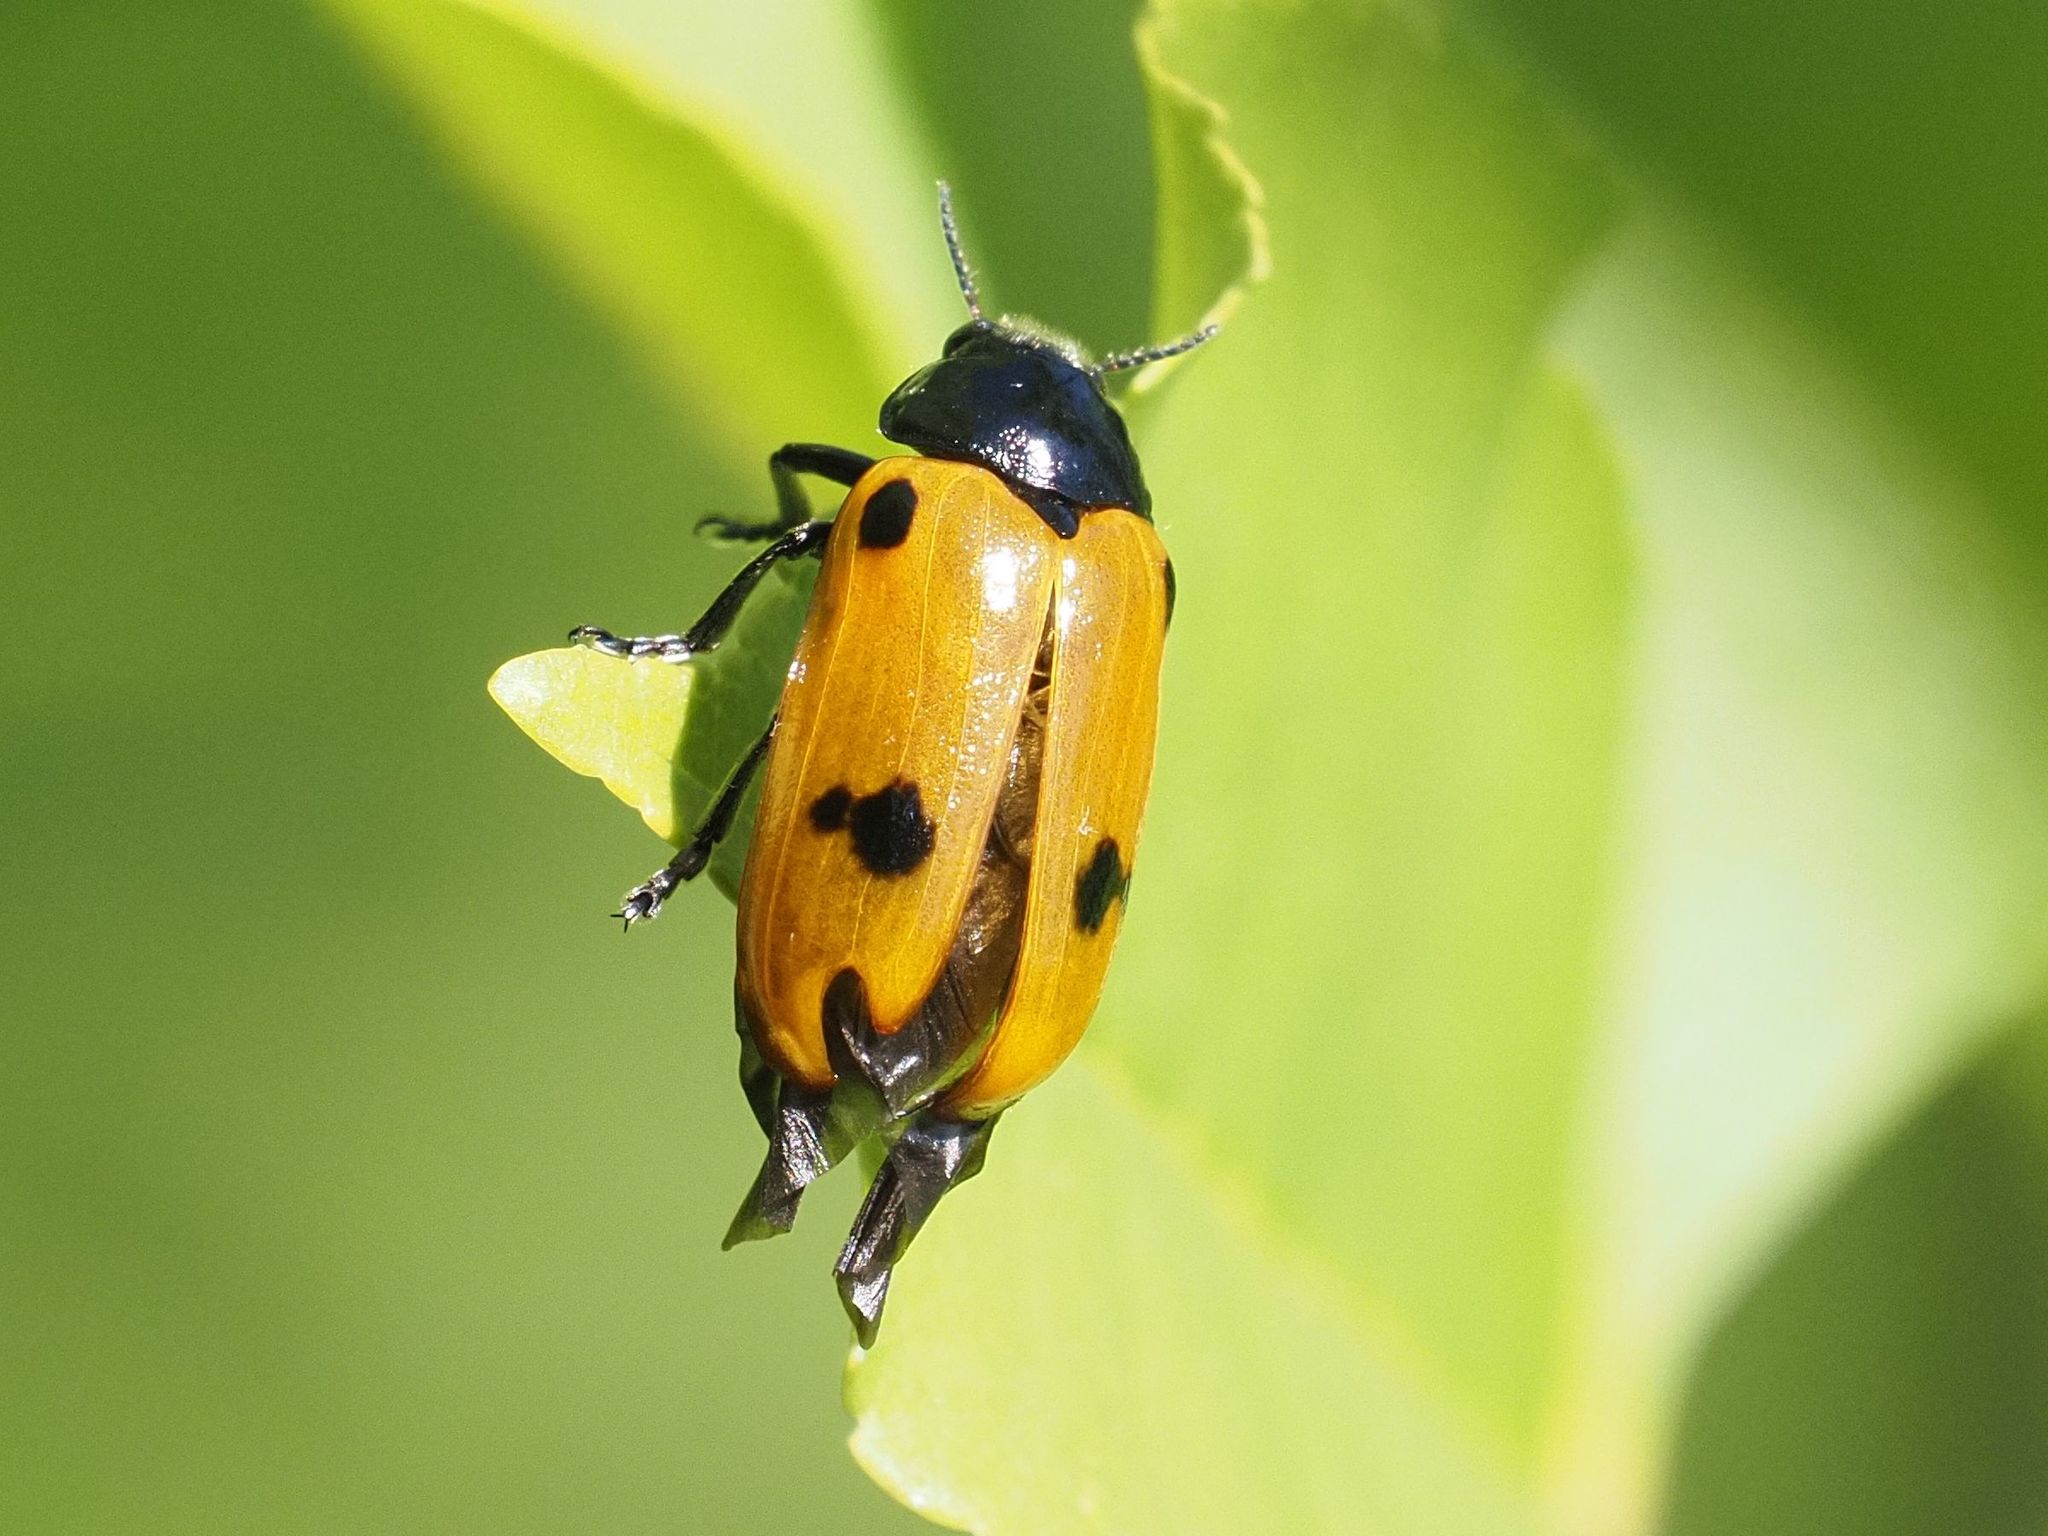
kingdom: Animalia
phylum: Arthropoda
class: Insecta
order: Coleoptera
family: Chrysomelidae
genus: Clytra
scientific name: Clytra quadripunctata
